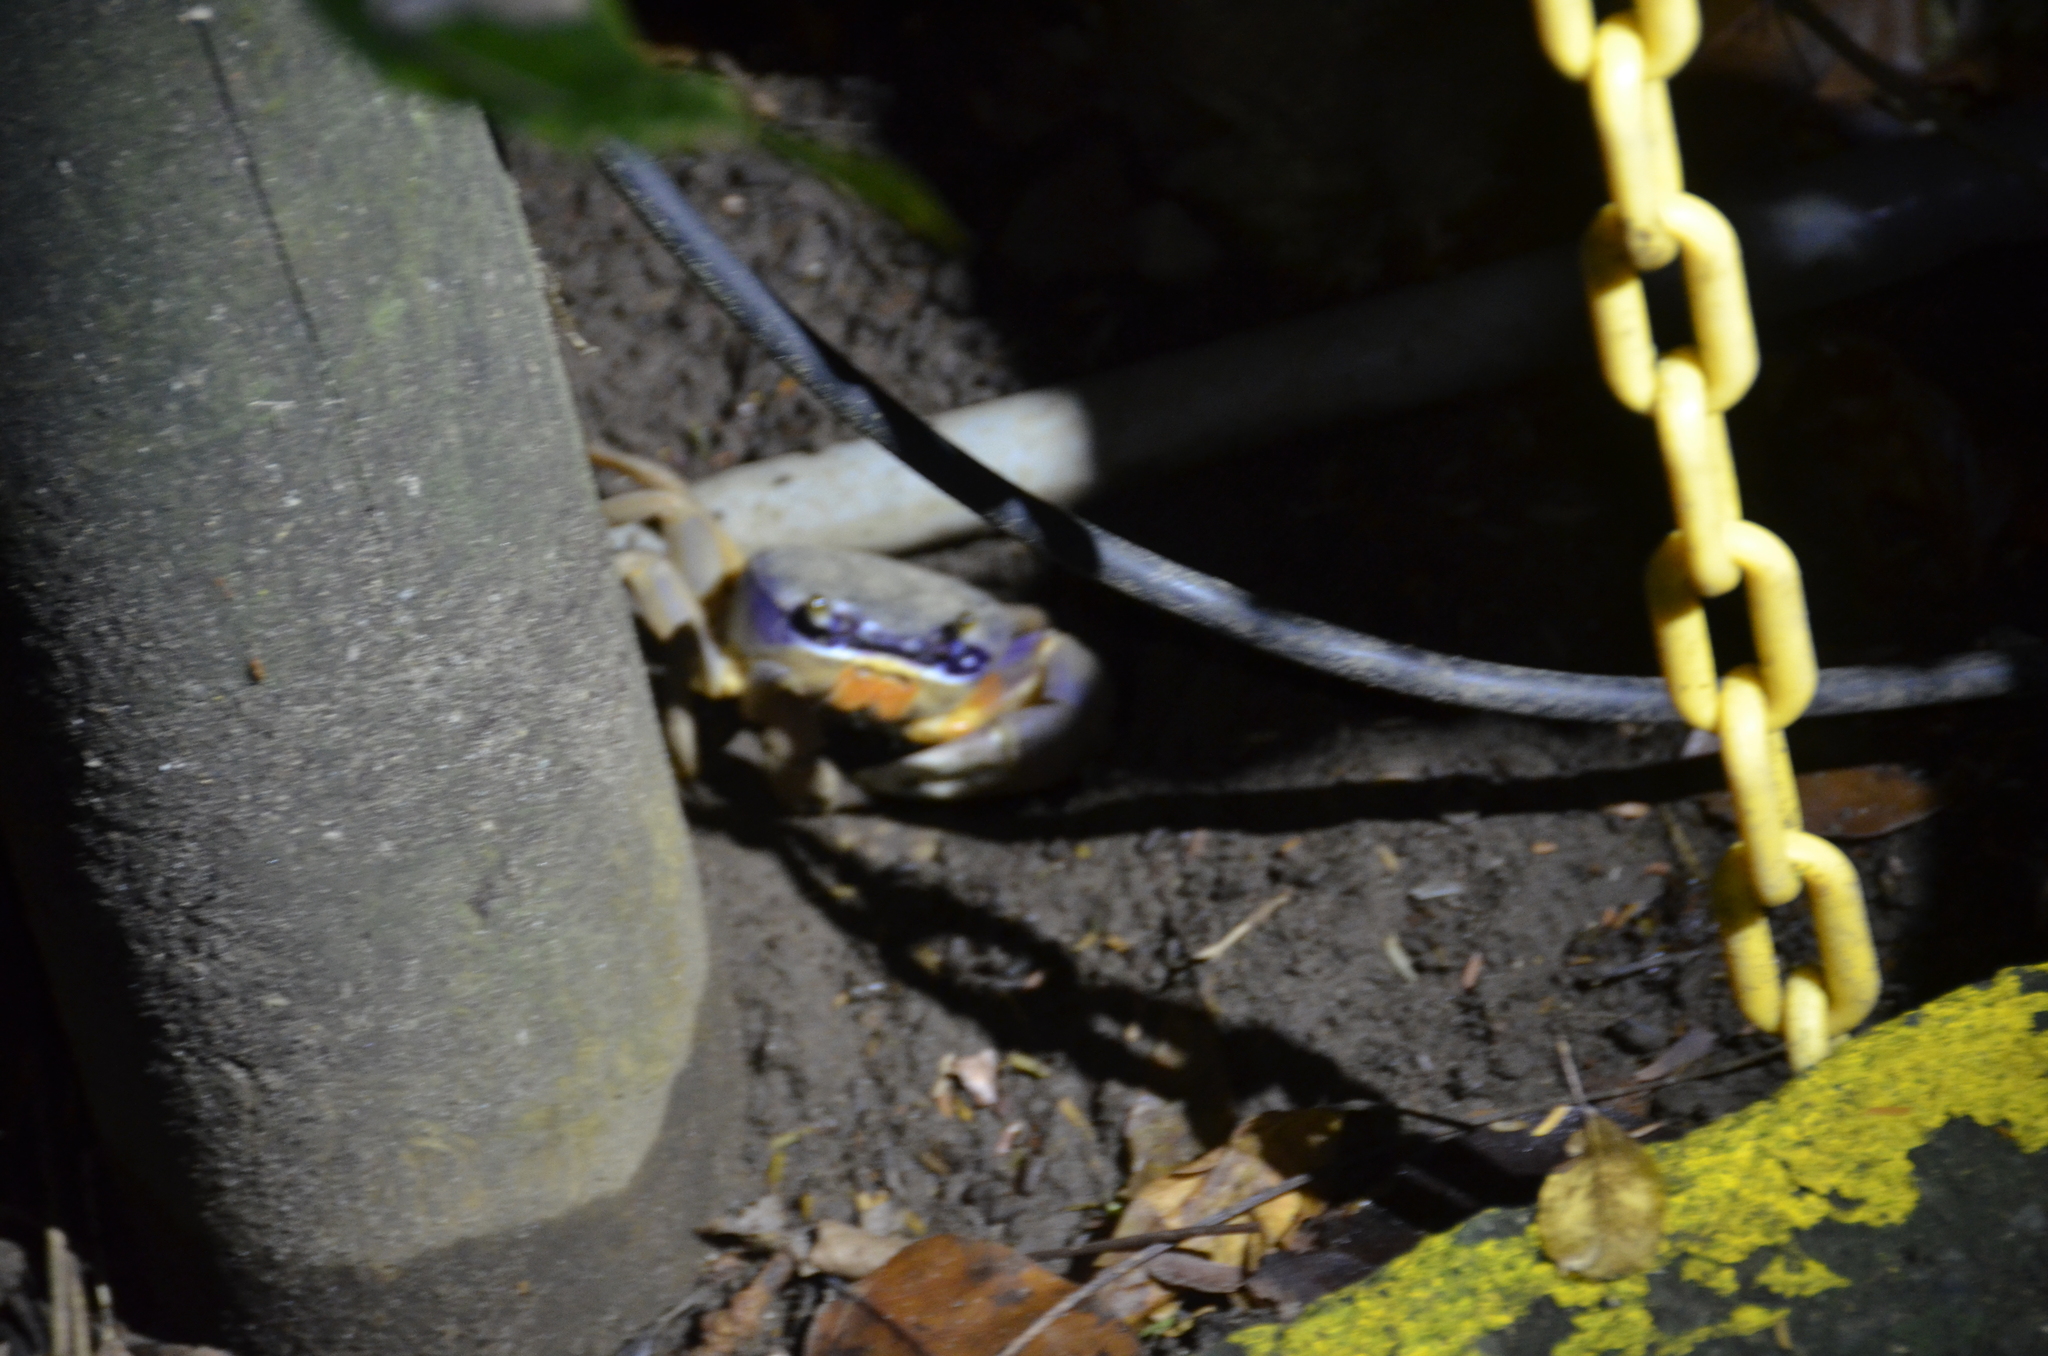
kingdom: Animalia
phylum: Arthropoda
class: Malacostraca
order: Decapoda
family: Gecarcinidae
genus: Cardisoma
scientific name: Cardisoma guanhumi
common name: Great land crab
